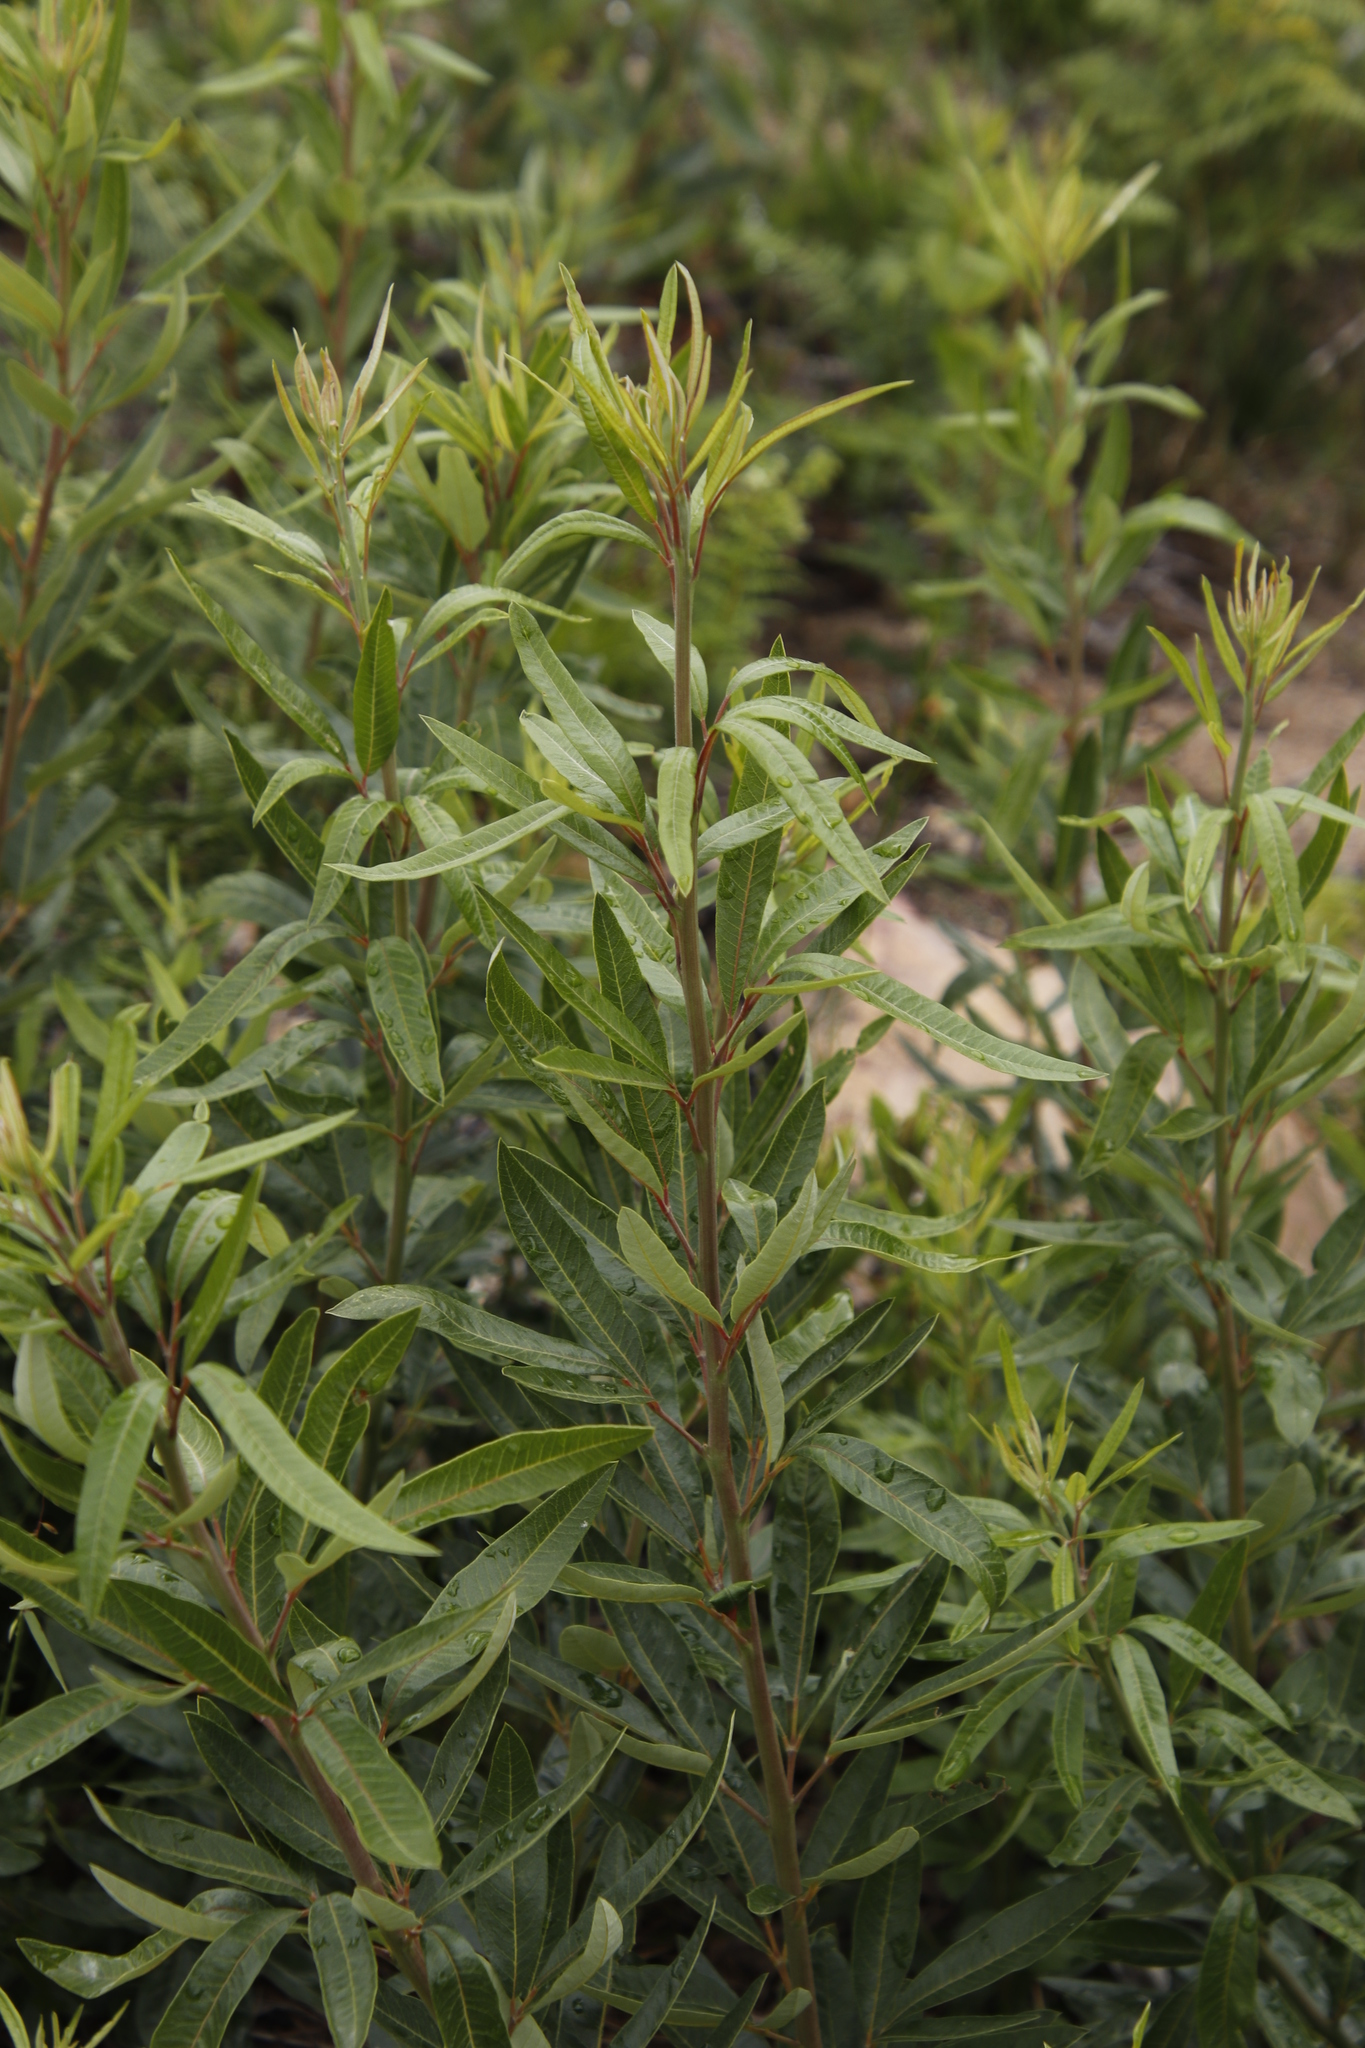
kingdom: Plantae
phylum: Tracheophyta
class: Magnoliopsida
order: Sapindales
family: Anacardiaceae
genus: Searsia
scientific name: Searsia angustifolia
